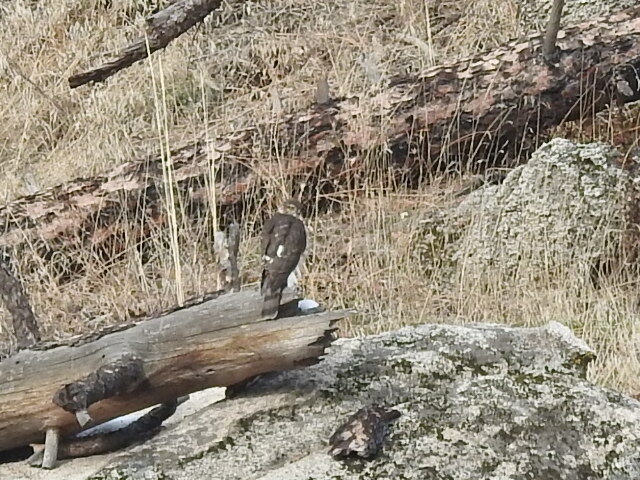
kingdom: Animalia
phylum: Chordata
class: Aves
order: Accipitriformes
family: Accipitridae
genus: Accipiter
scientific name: Accipiter striatus
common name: Sharp-shinned hawk
